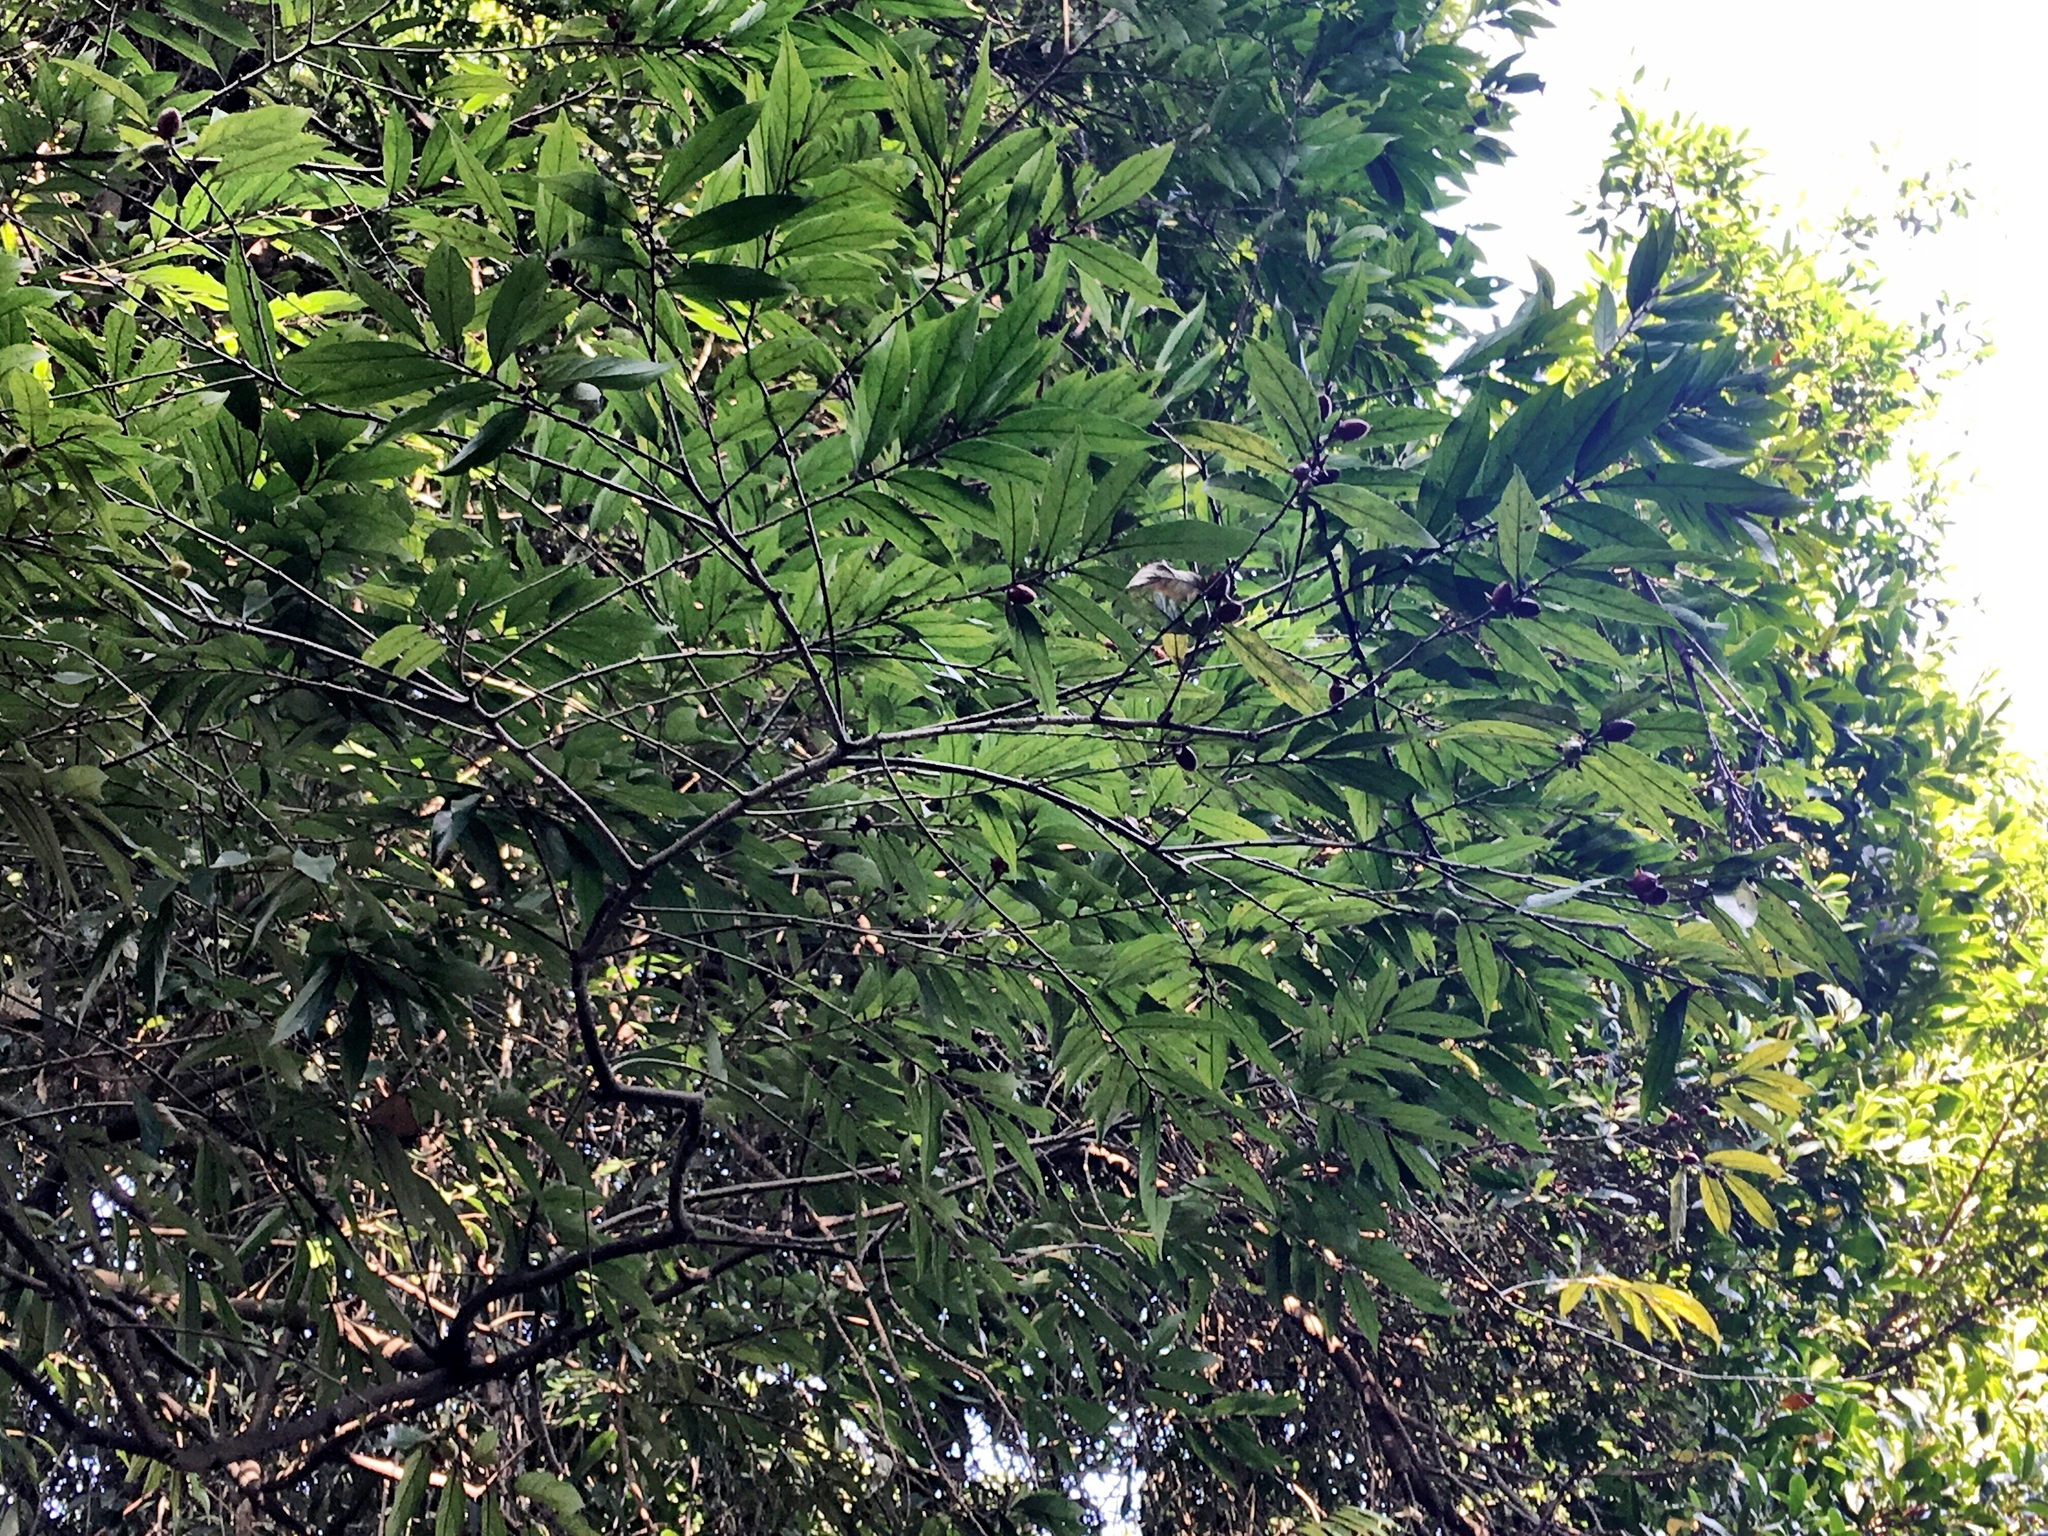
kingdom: Plantae
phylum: Tracheophyta
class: Magnoliopsida
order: Ericales
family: Ebenaceae
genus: Diospyros
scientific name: Diospyros eriantha
